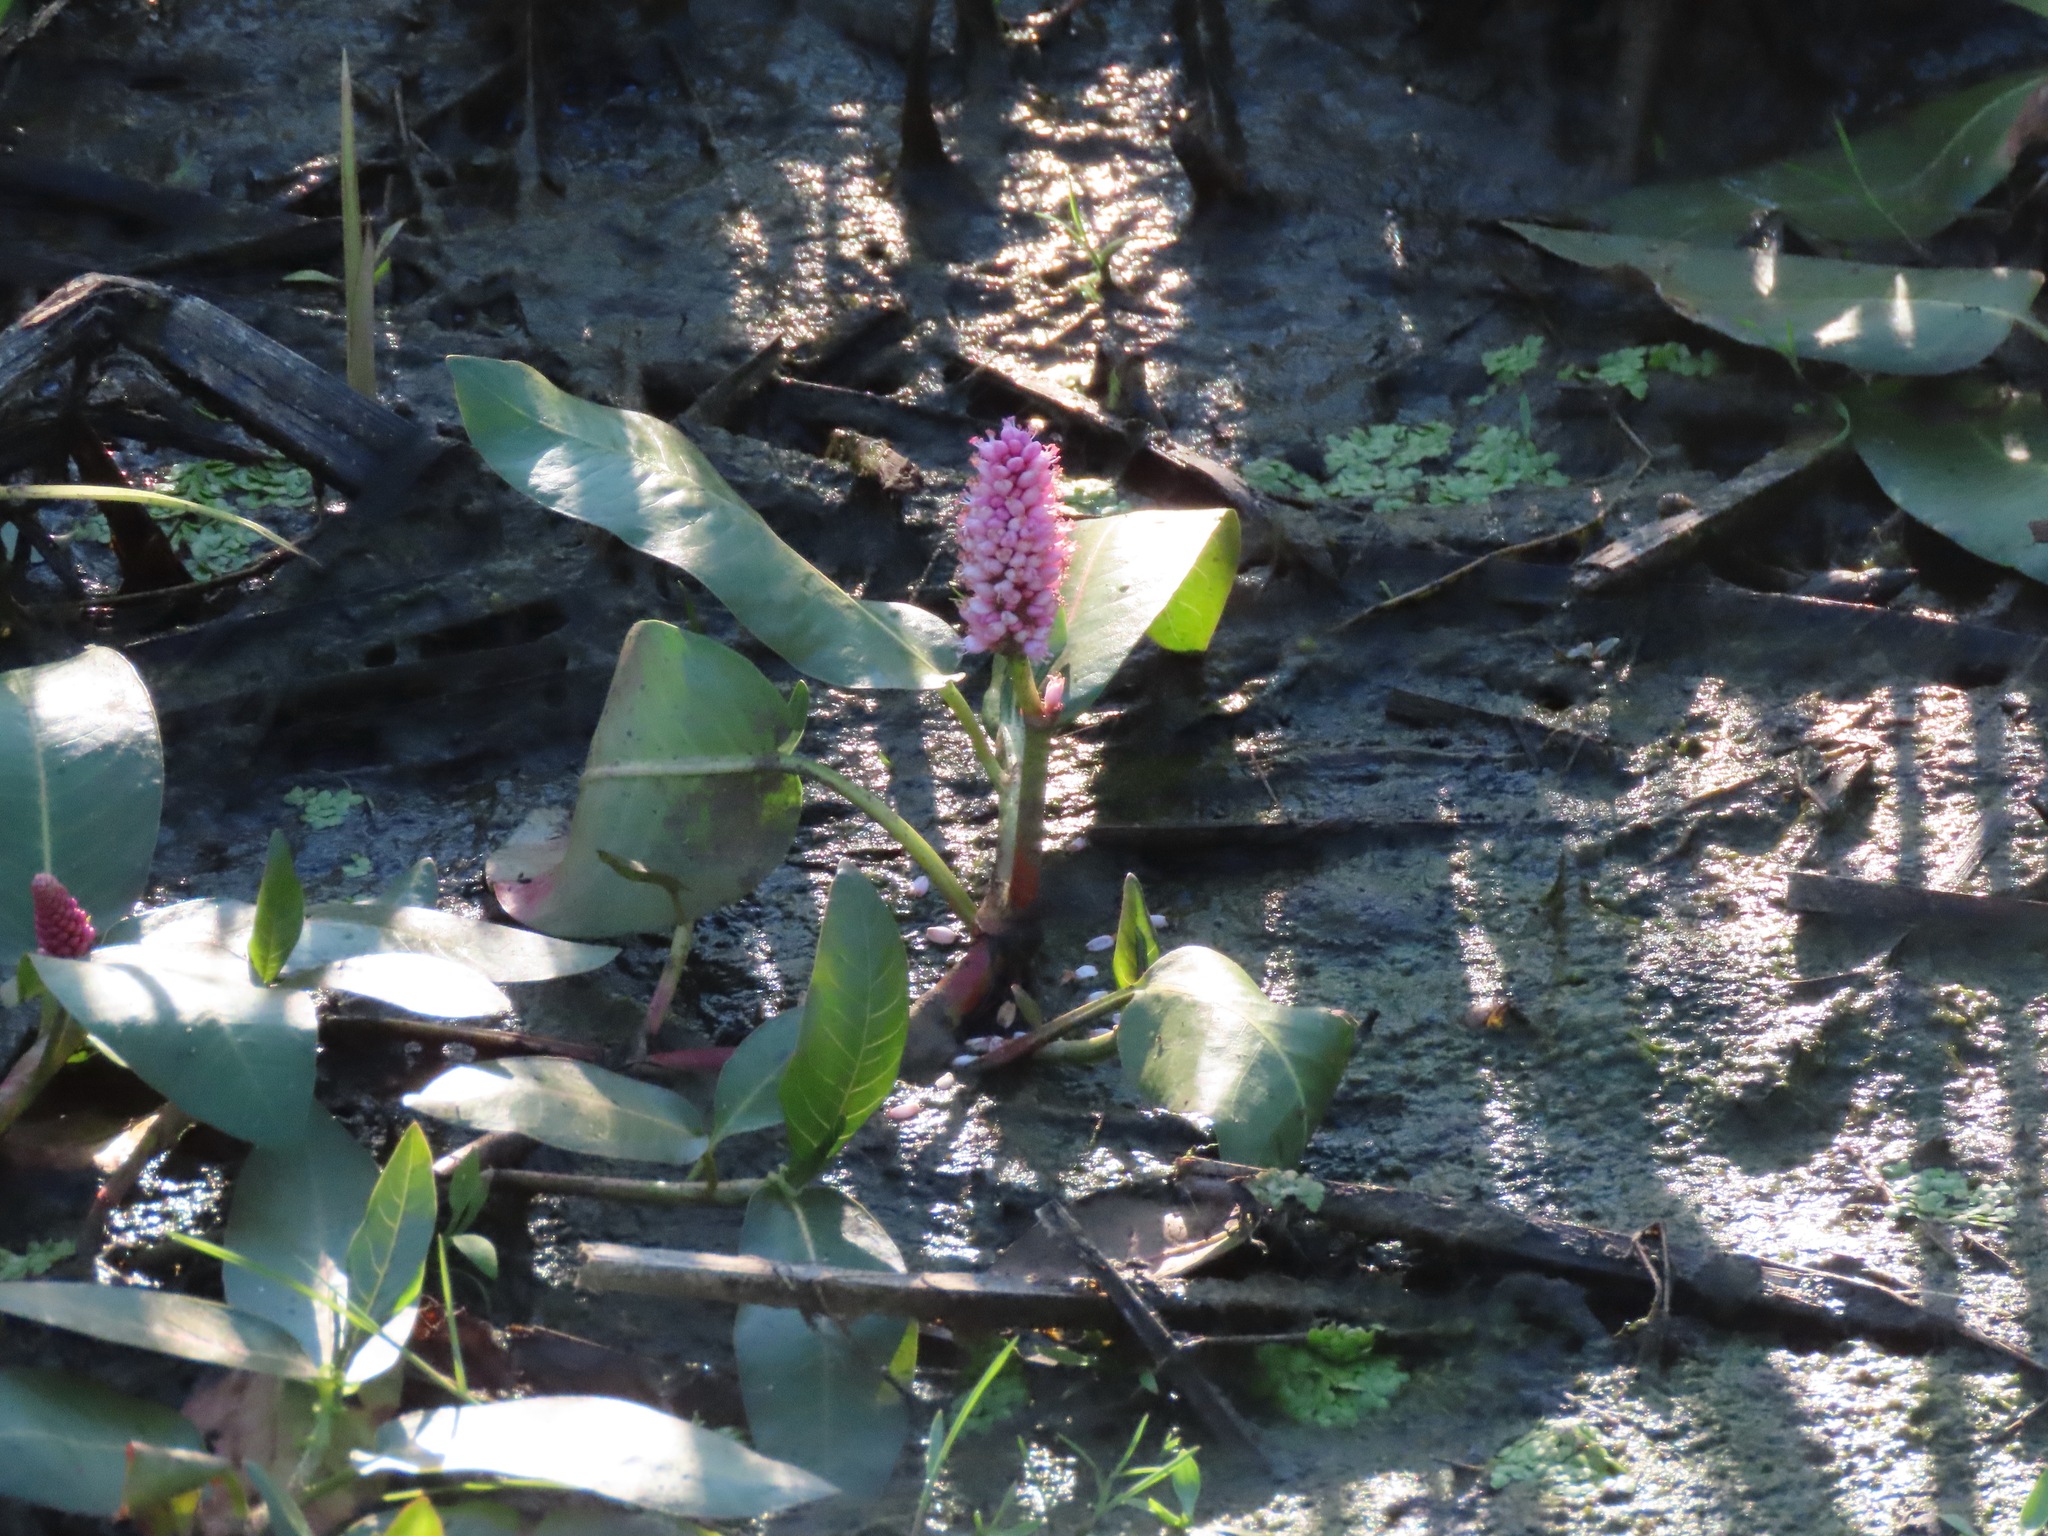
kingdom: Plantae
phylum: Tracheophyta
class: Magnoliopsida
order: Caryophyllales
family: Polygonaceae
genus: Persicaria
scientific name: Persicaria amphibia
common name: Amphibious bistort
